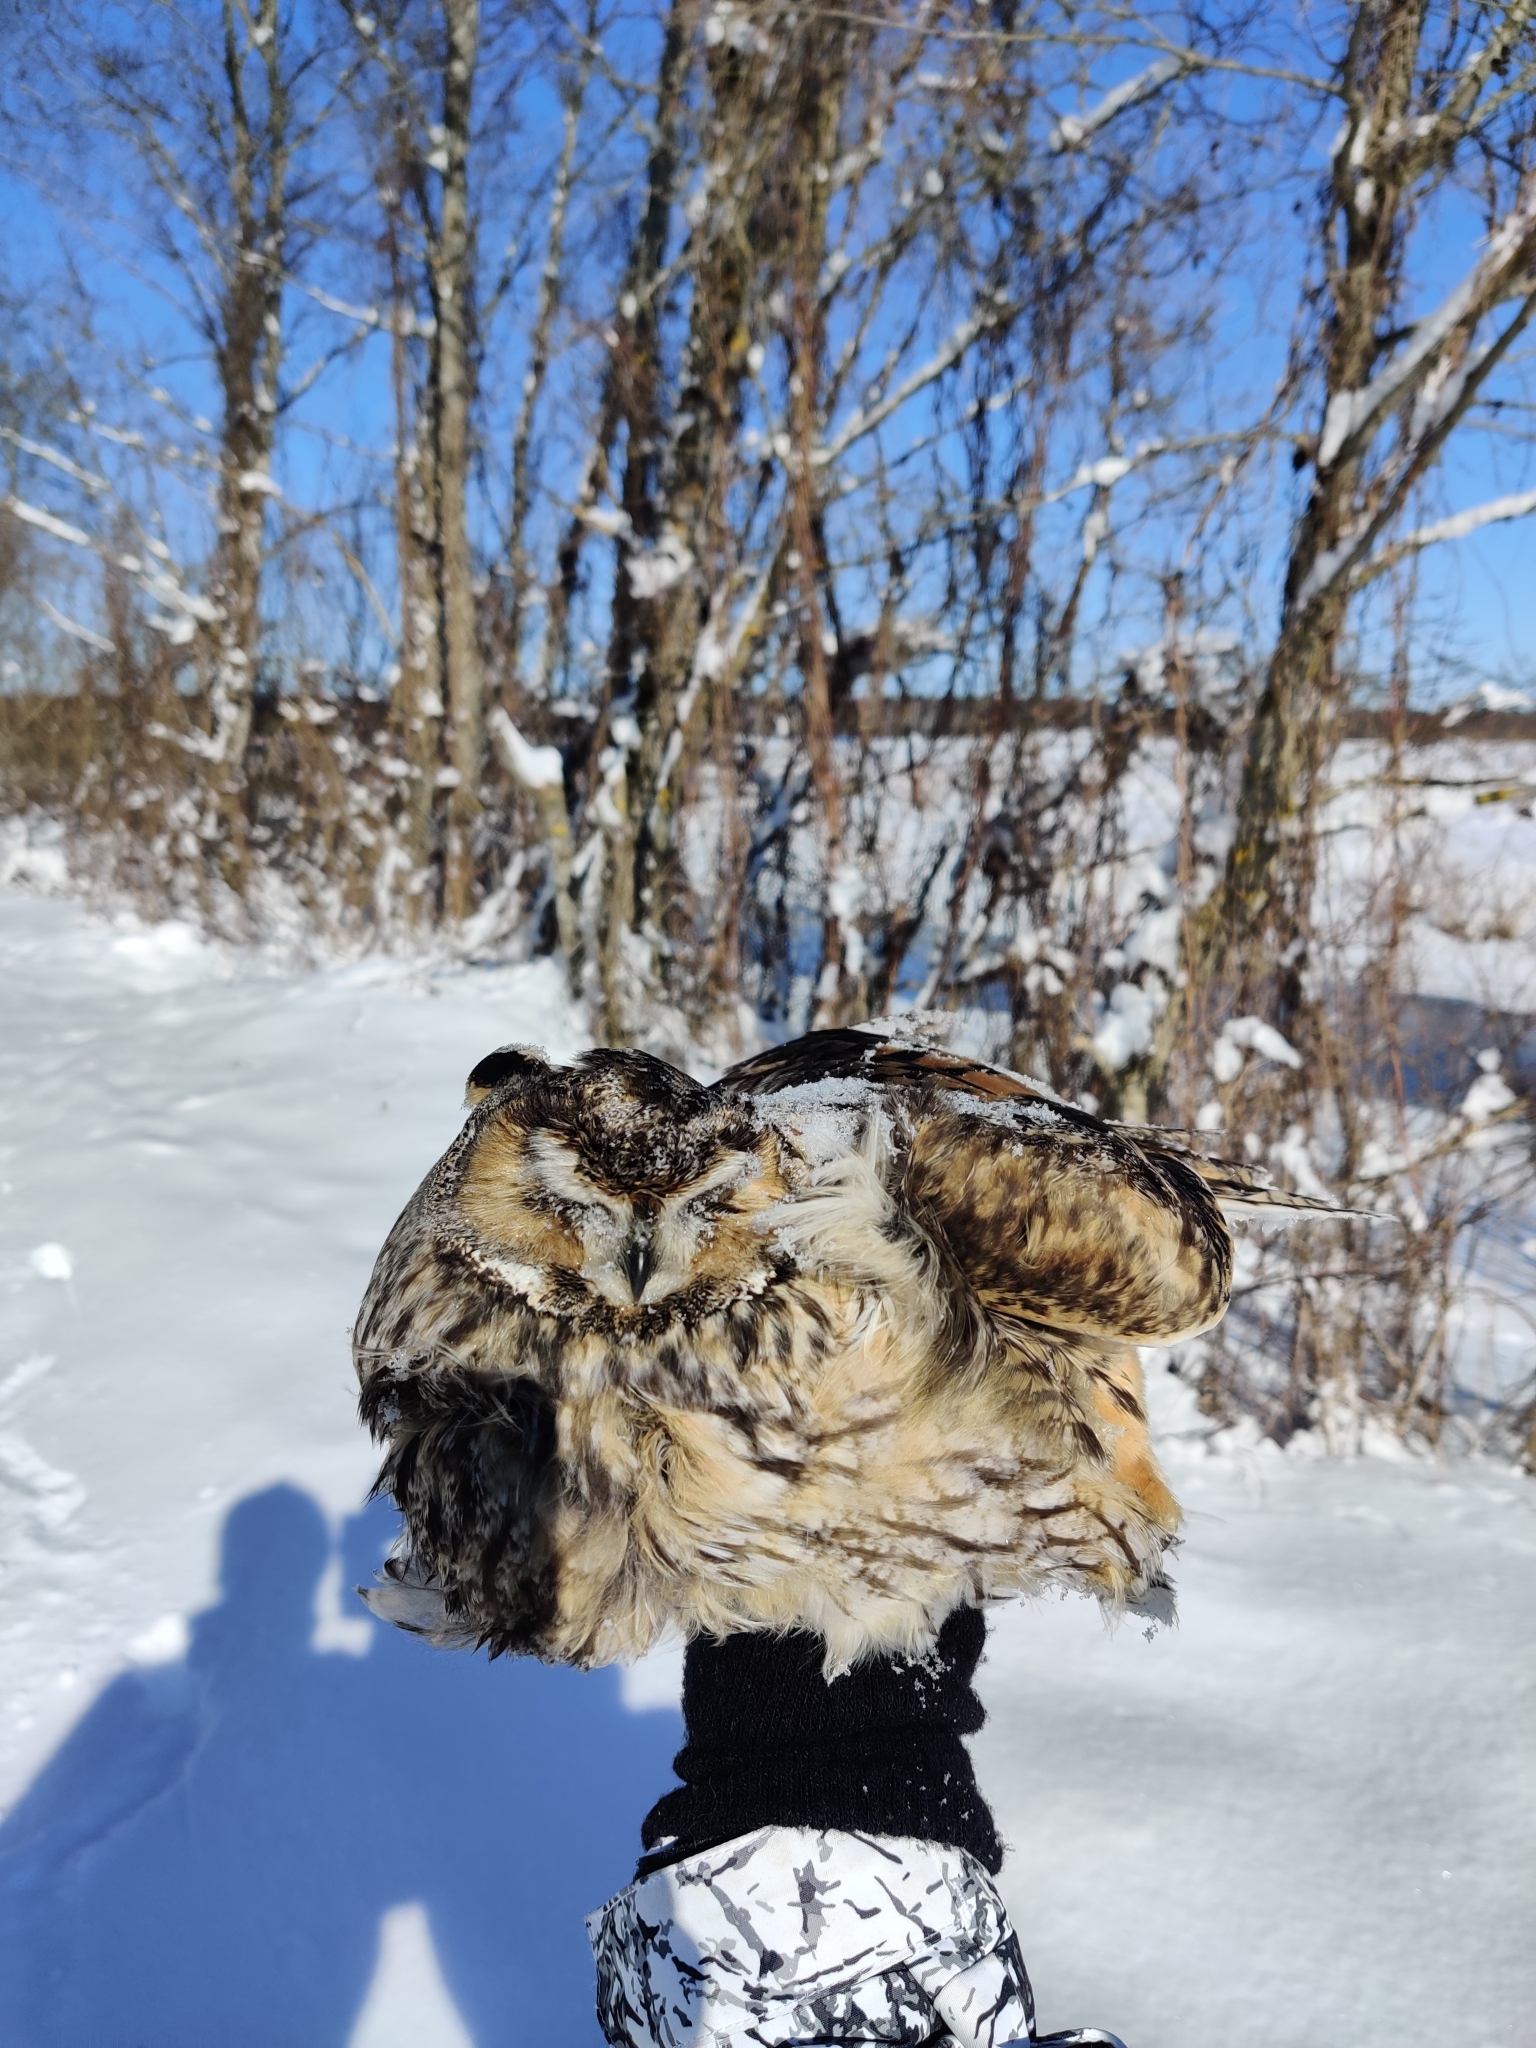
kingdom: Animalia
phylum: Chordata
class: Aves
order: Strigiformes
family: Strigidae
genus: Asio
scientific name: Asio otus
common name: Long-eared owl
